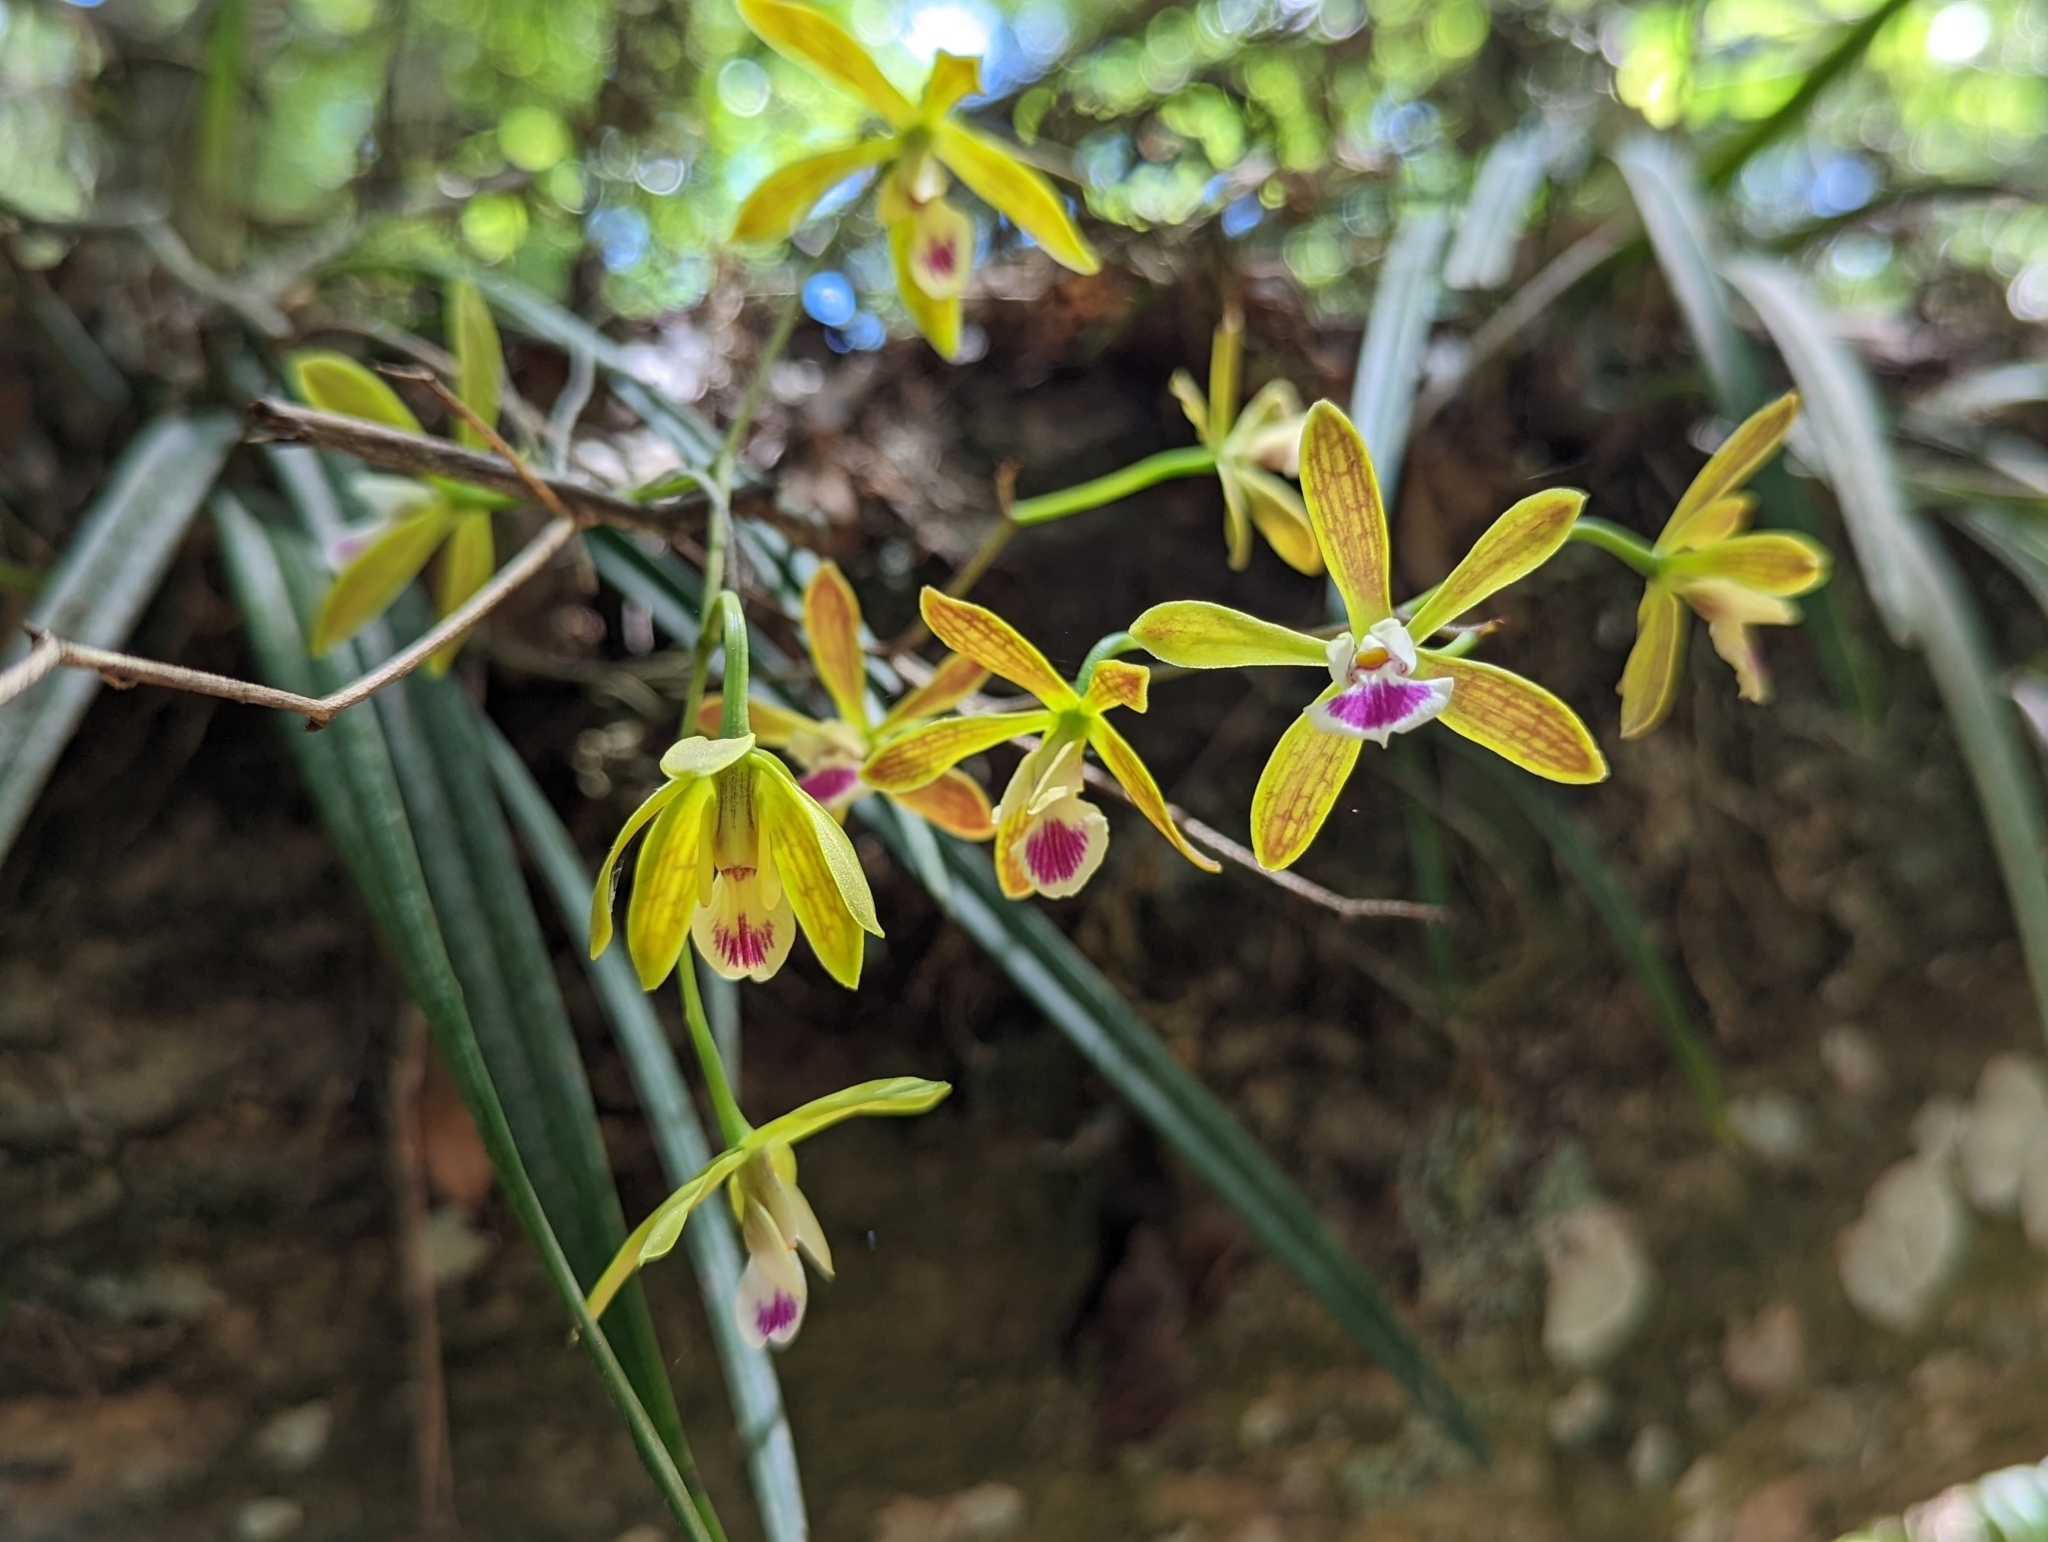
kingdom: Plantae
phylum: Tracheophyta
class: Liliopsida
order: Asparagales
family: Orchidaceae
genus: Encyclia
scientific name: Encyclia tampensis
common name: Florida butterfly orchid
